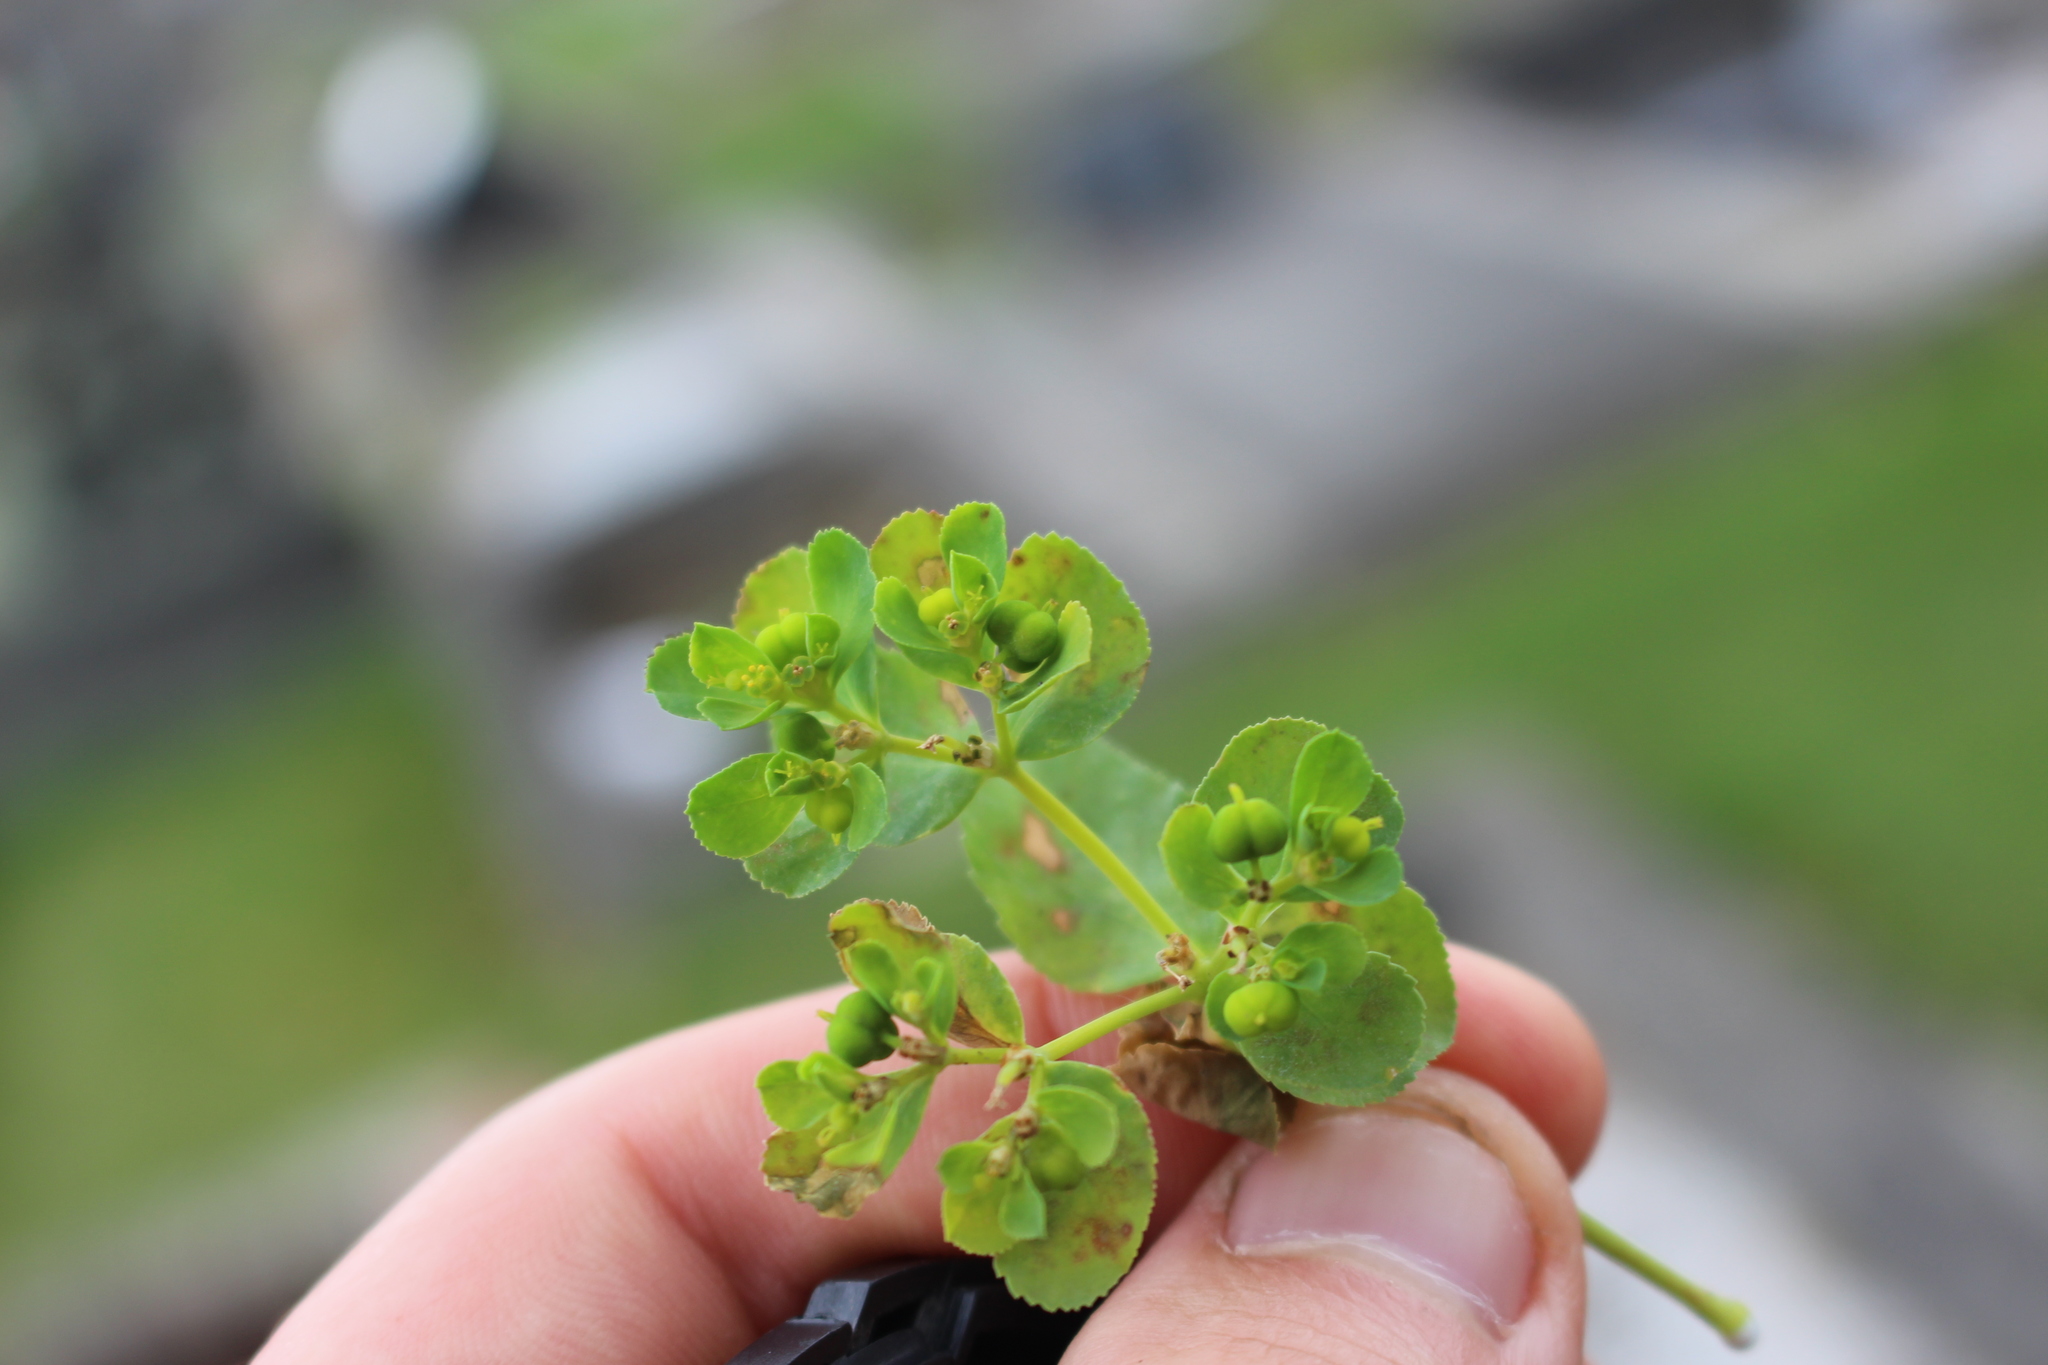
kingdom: Plantae
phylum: Tracheophyta
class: Magnoliopsida
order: Malpighiales
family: Euphorbiaceae
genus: Euphorbia
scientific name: Euphorbia helioscopia
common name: Sun spurge
